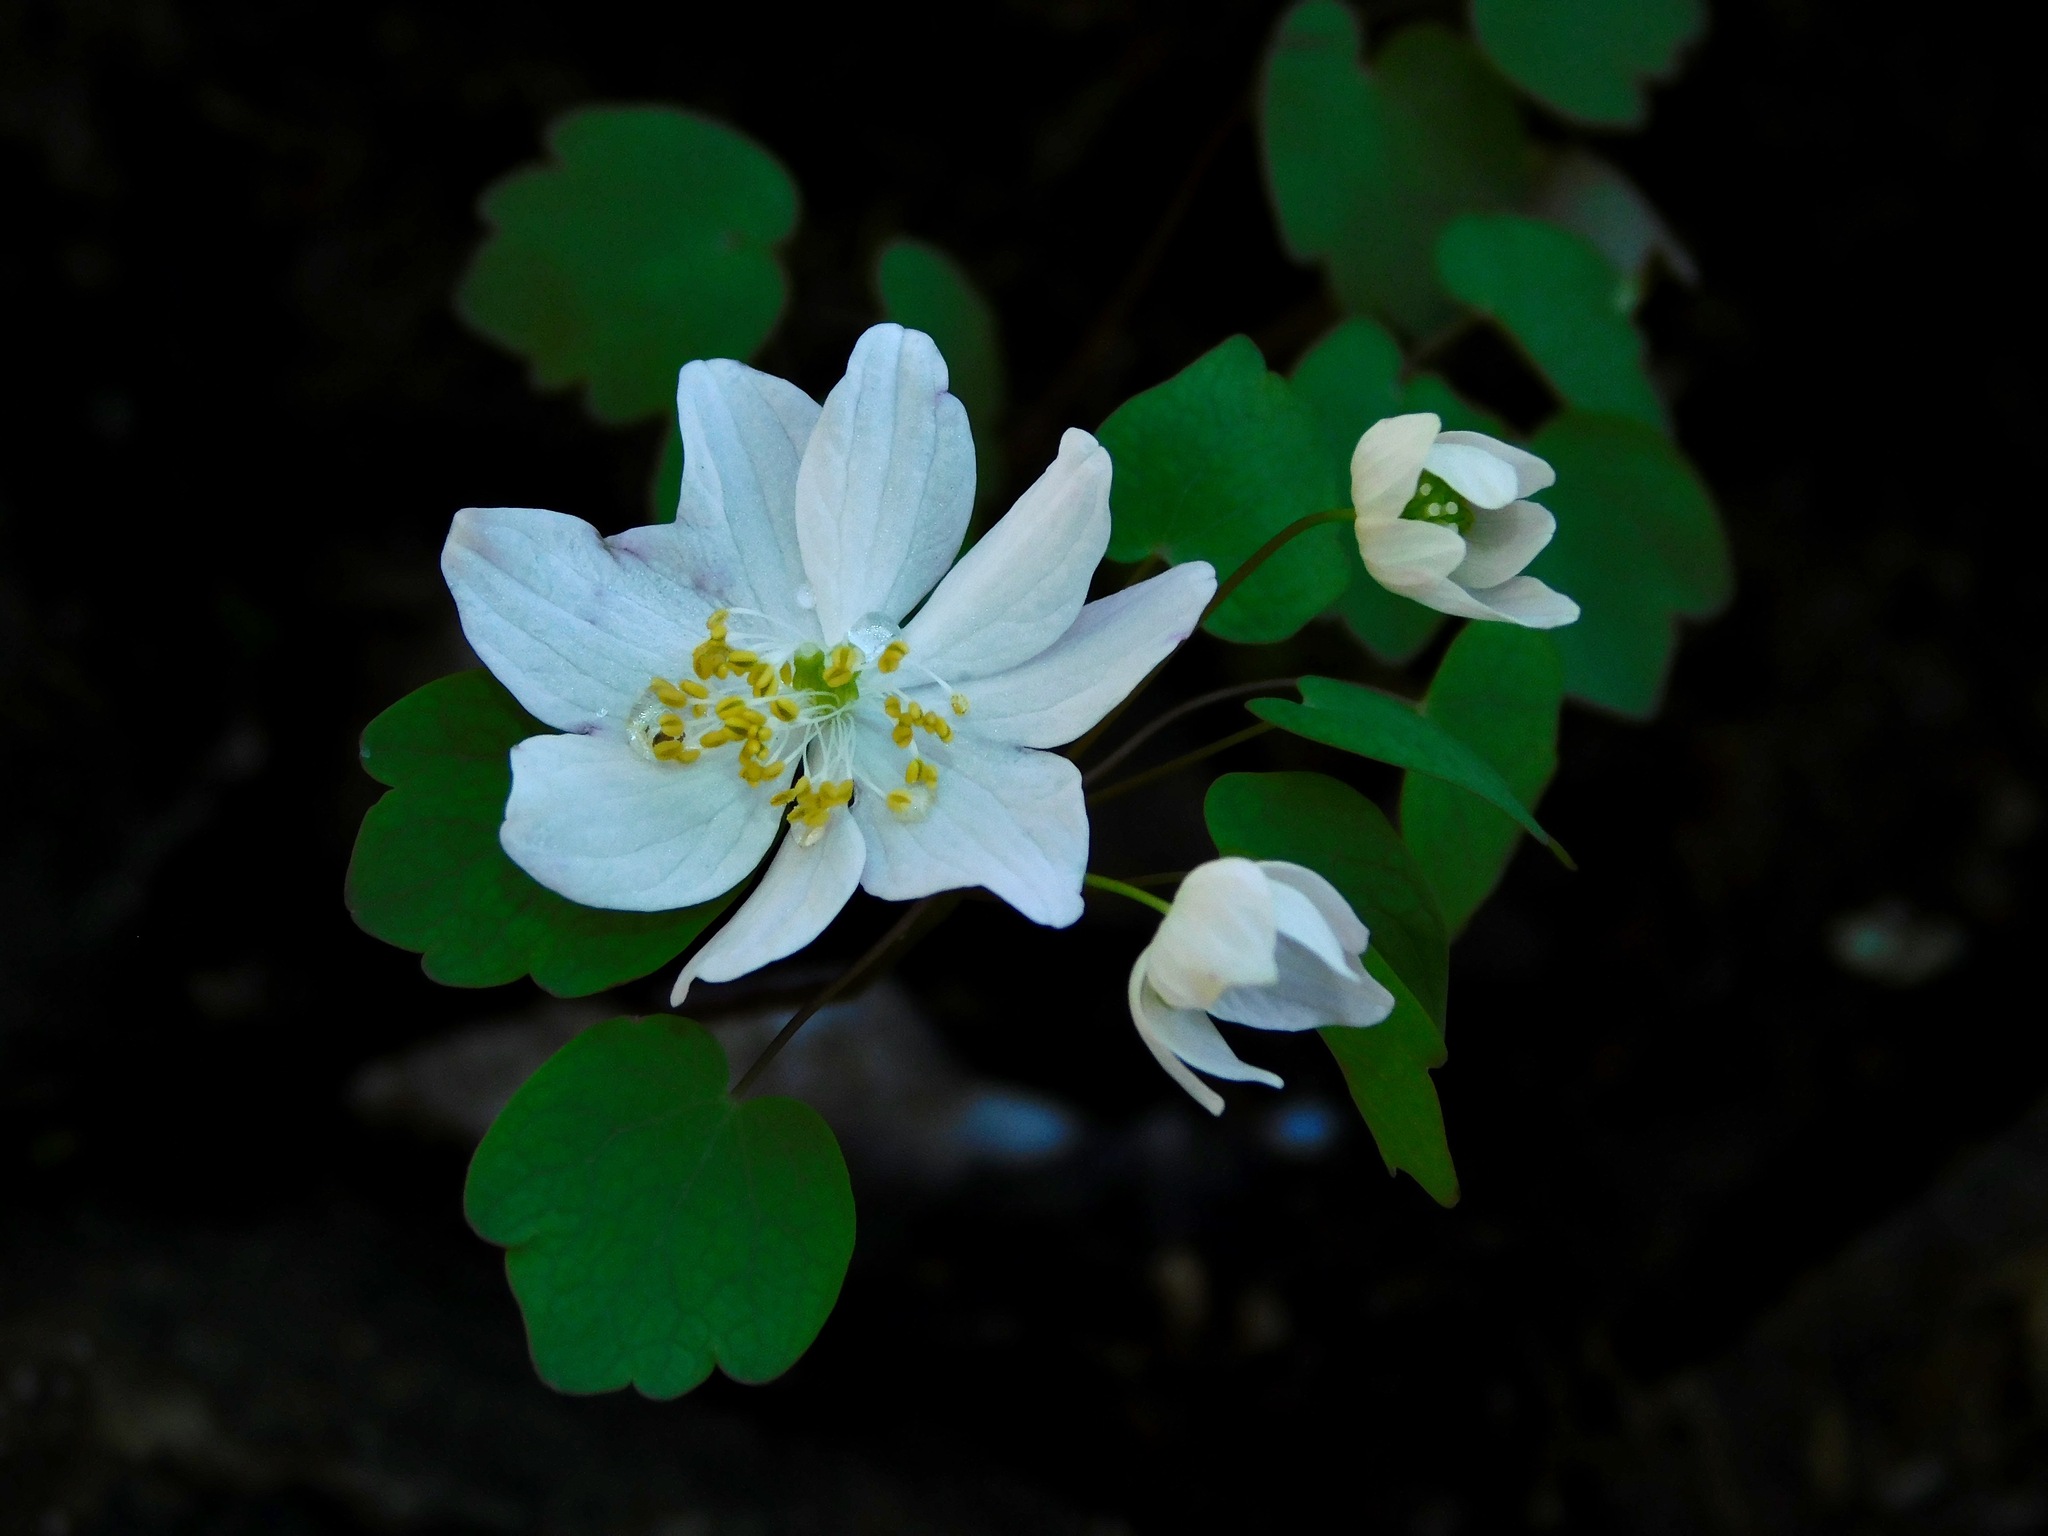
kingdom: Plantae
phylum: Tracheophyta
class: Magnoliopsida
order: Ranunculales
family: Ranunculaceae
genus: Thalictrum
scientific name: Thalictrum thalictroides
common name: Rue-anemone
